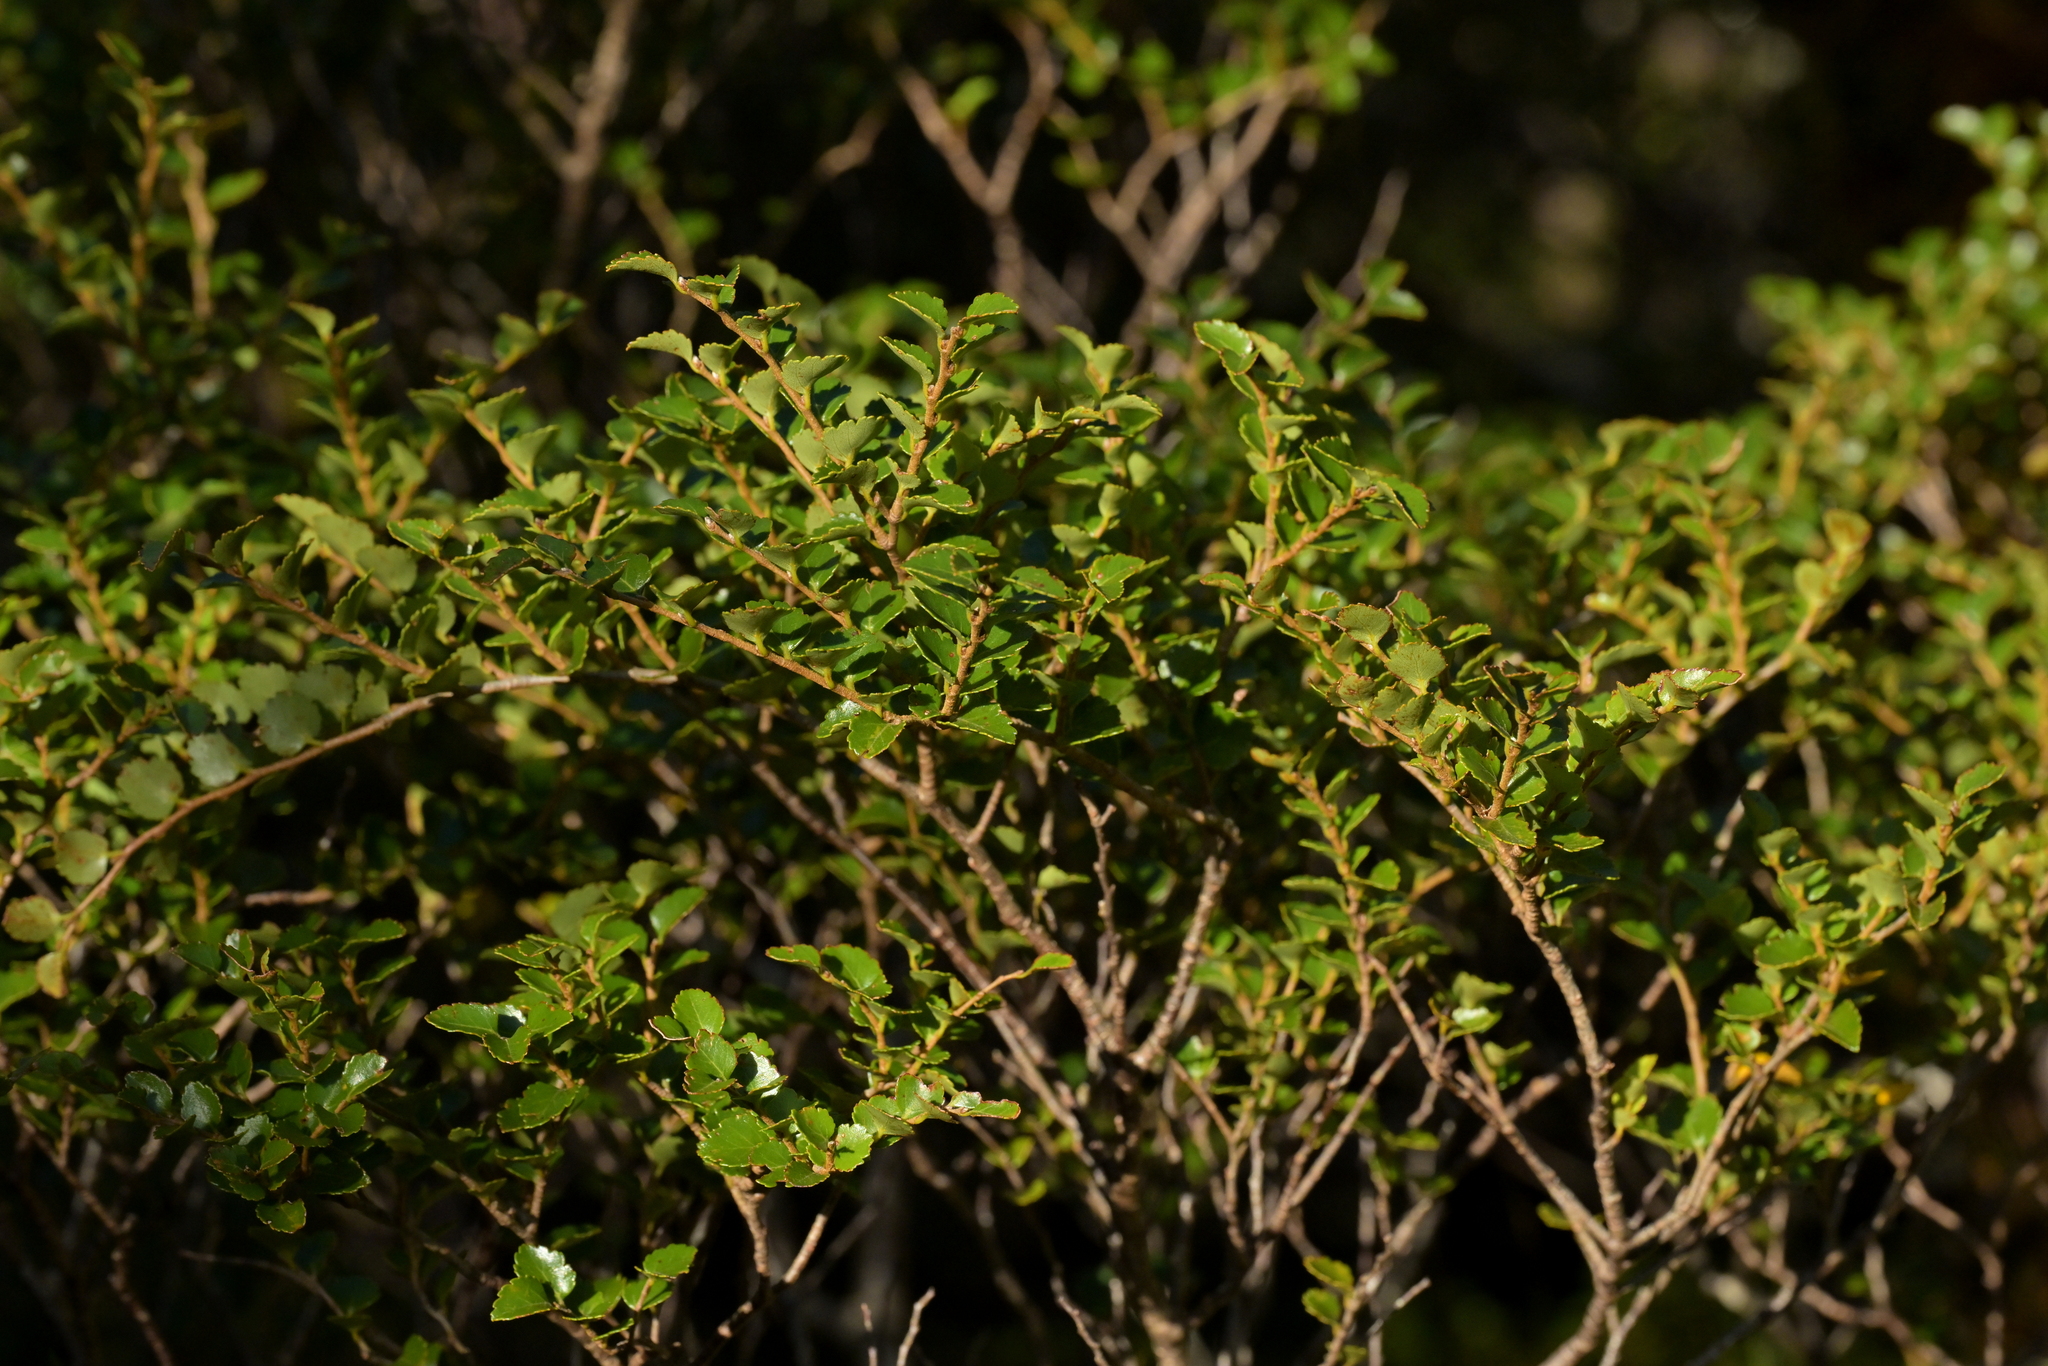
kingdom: Plantae
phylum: Tracheophyta
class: Magnoliopsida
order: Fagales
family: Nothofagaceae
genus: Nothofagus
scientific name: Nothofagus menziesii
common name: Silver beech
